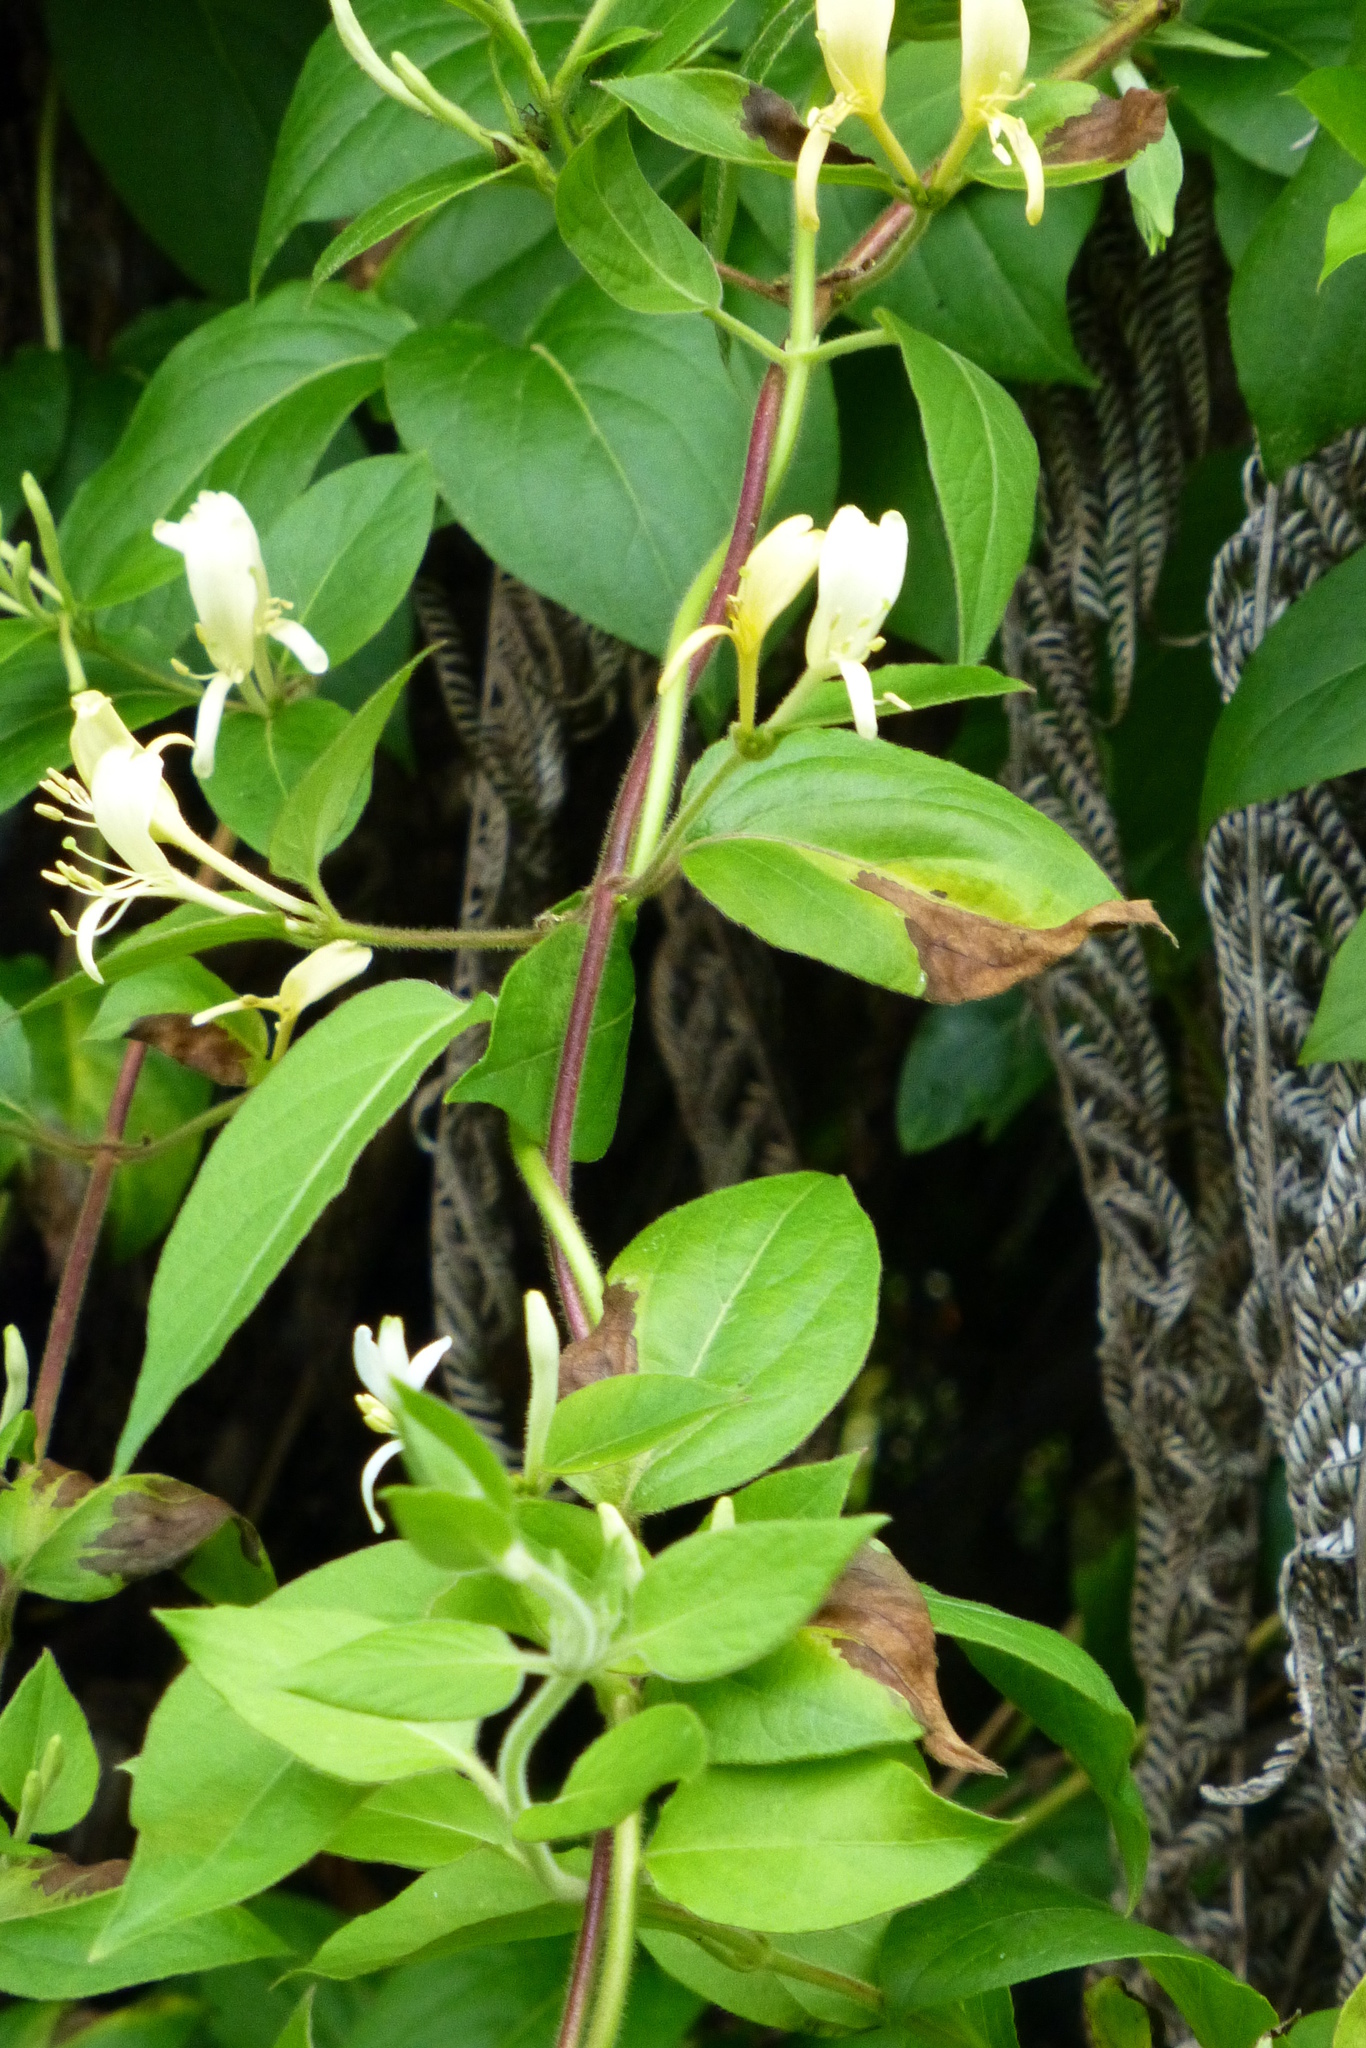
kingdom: Plantae
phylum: Tracheophyta
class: Magnoliopsida
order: Dipsacales
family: Caprifoliaceae
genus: Lonicera
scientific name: Lonicera japonica
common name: Japanese honeysuckle
